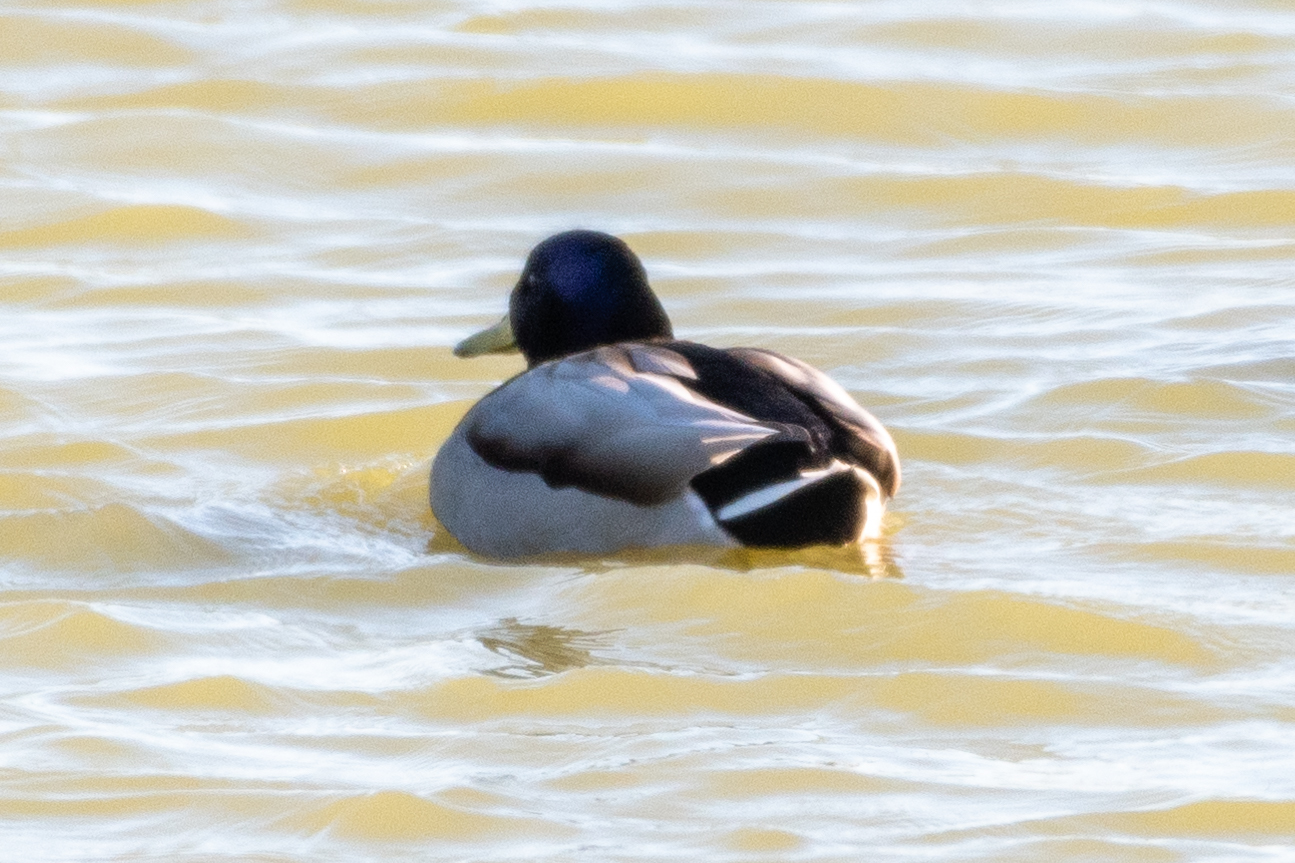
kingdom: Animalia
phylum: Chordata
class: Aves
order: Anseriformes
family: Anatidae
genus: Anas
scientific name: Anas platyrhynchos
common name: Mallard
